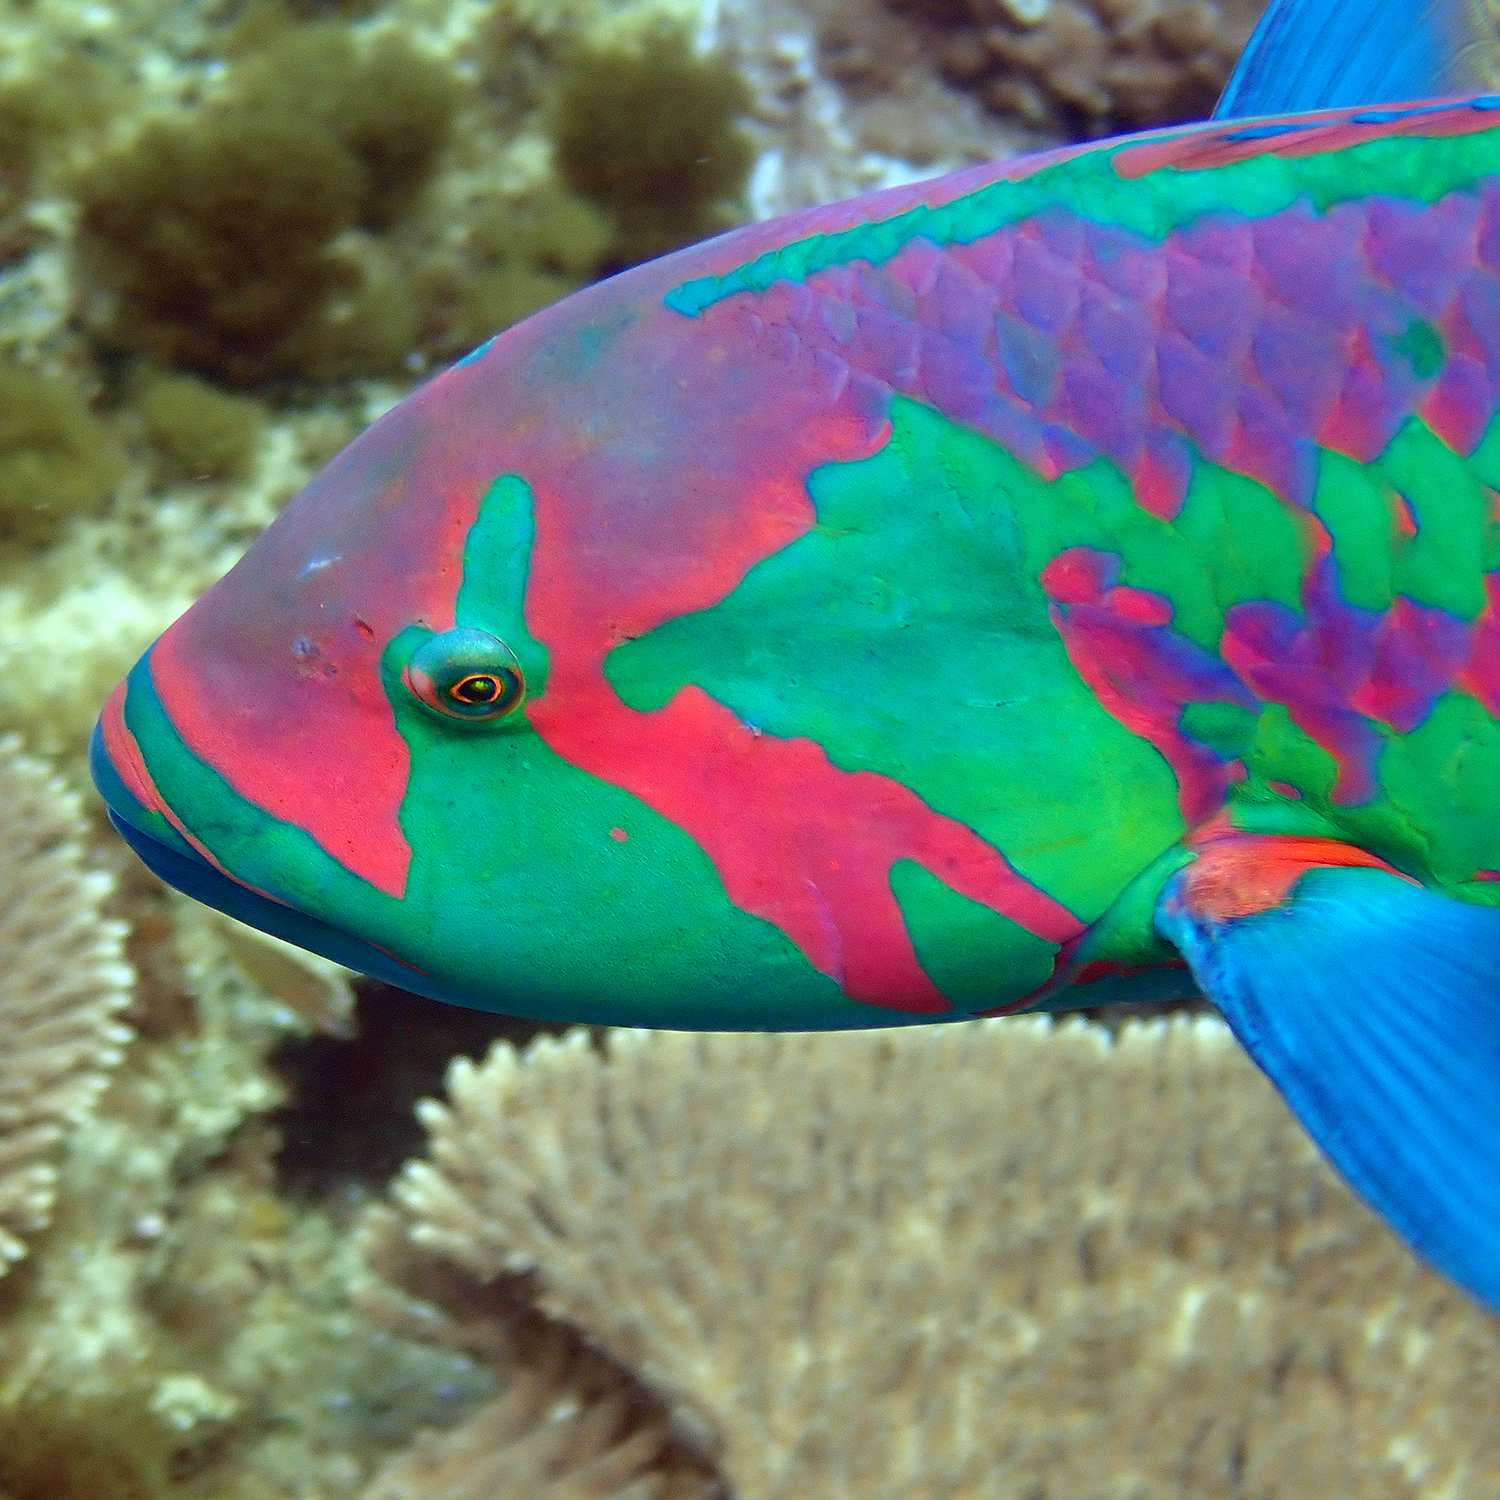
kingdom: Animalia
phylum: Chordata
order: Perciformes
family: Labridae
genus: Thalassoma
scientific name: Thalassoma purpureum
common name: Parrotfish
